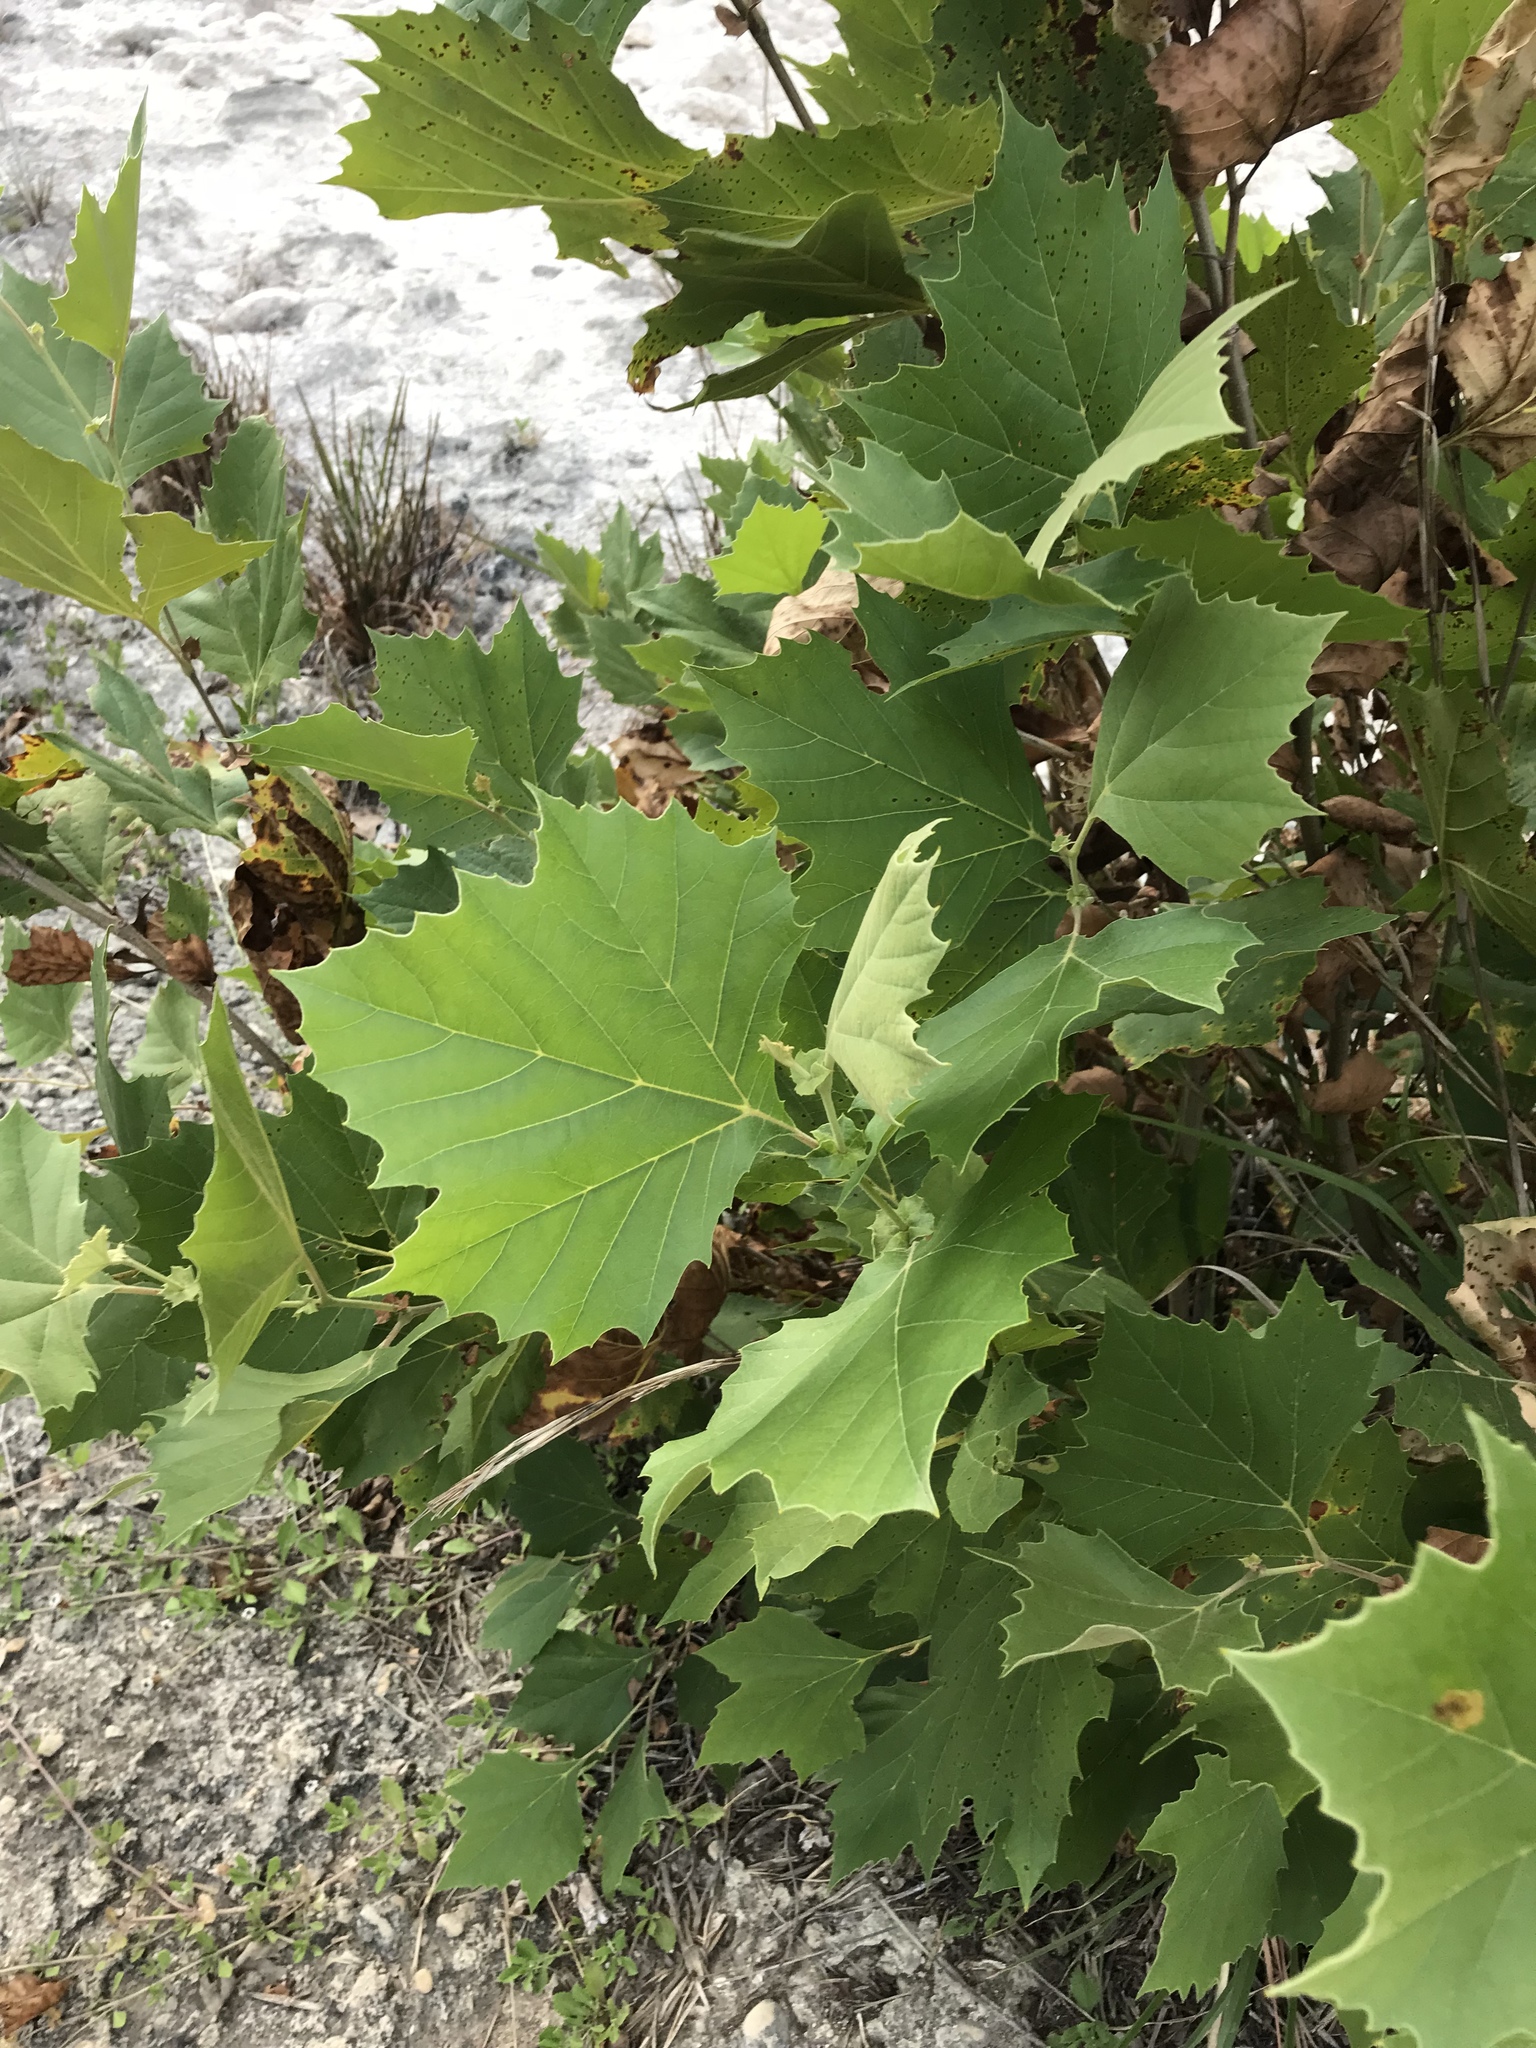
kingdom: Plantae
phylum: Tracheophyta
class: Magnoliopsida
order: Proteales
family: Platanaceae
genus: Platanus
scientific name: Platanus occidentalis
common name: American sycamore
